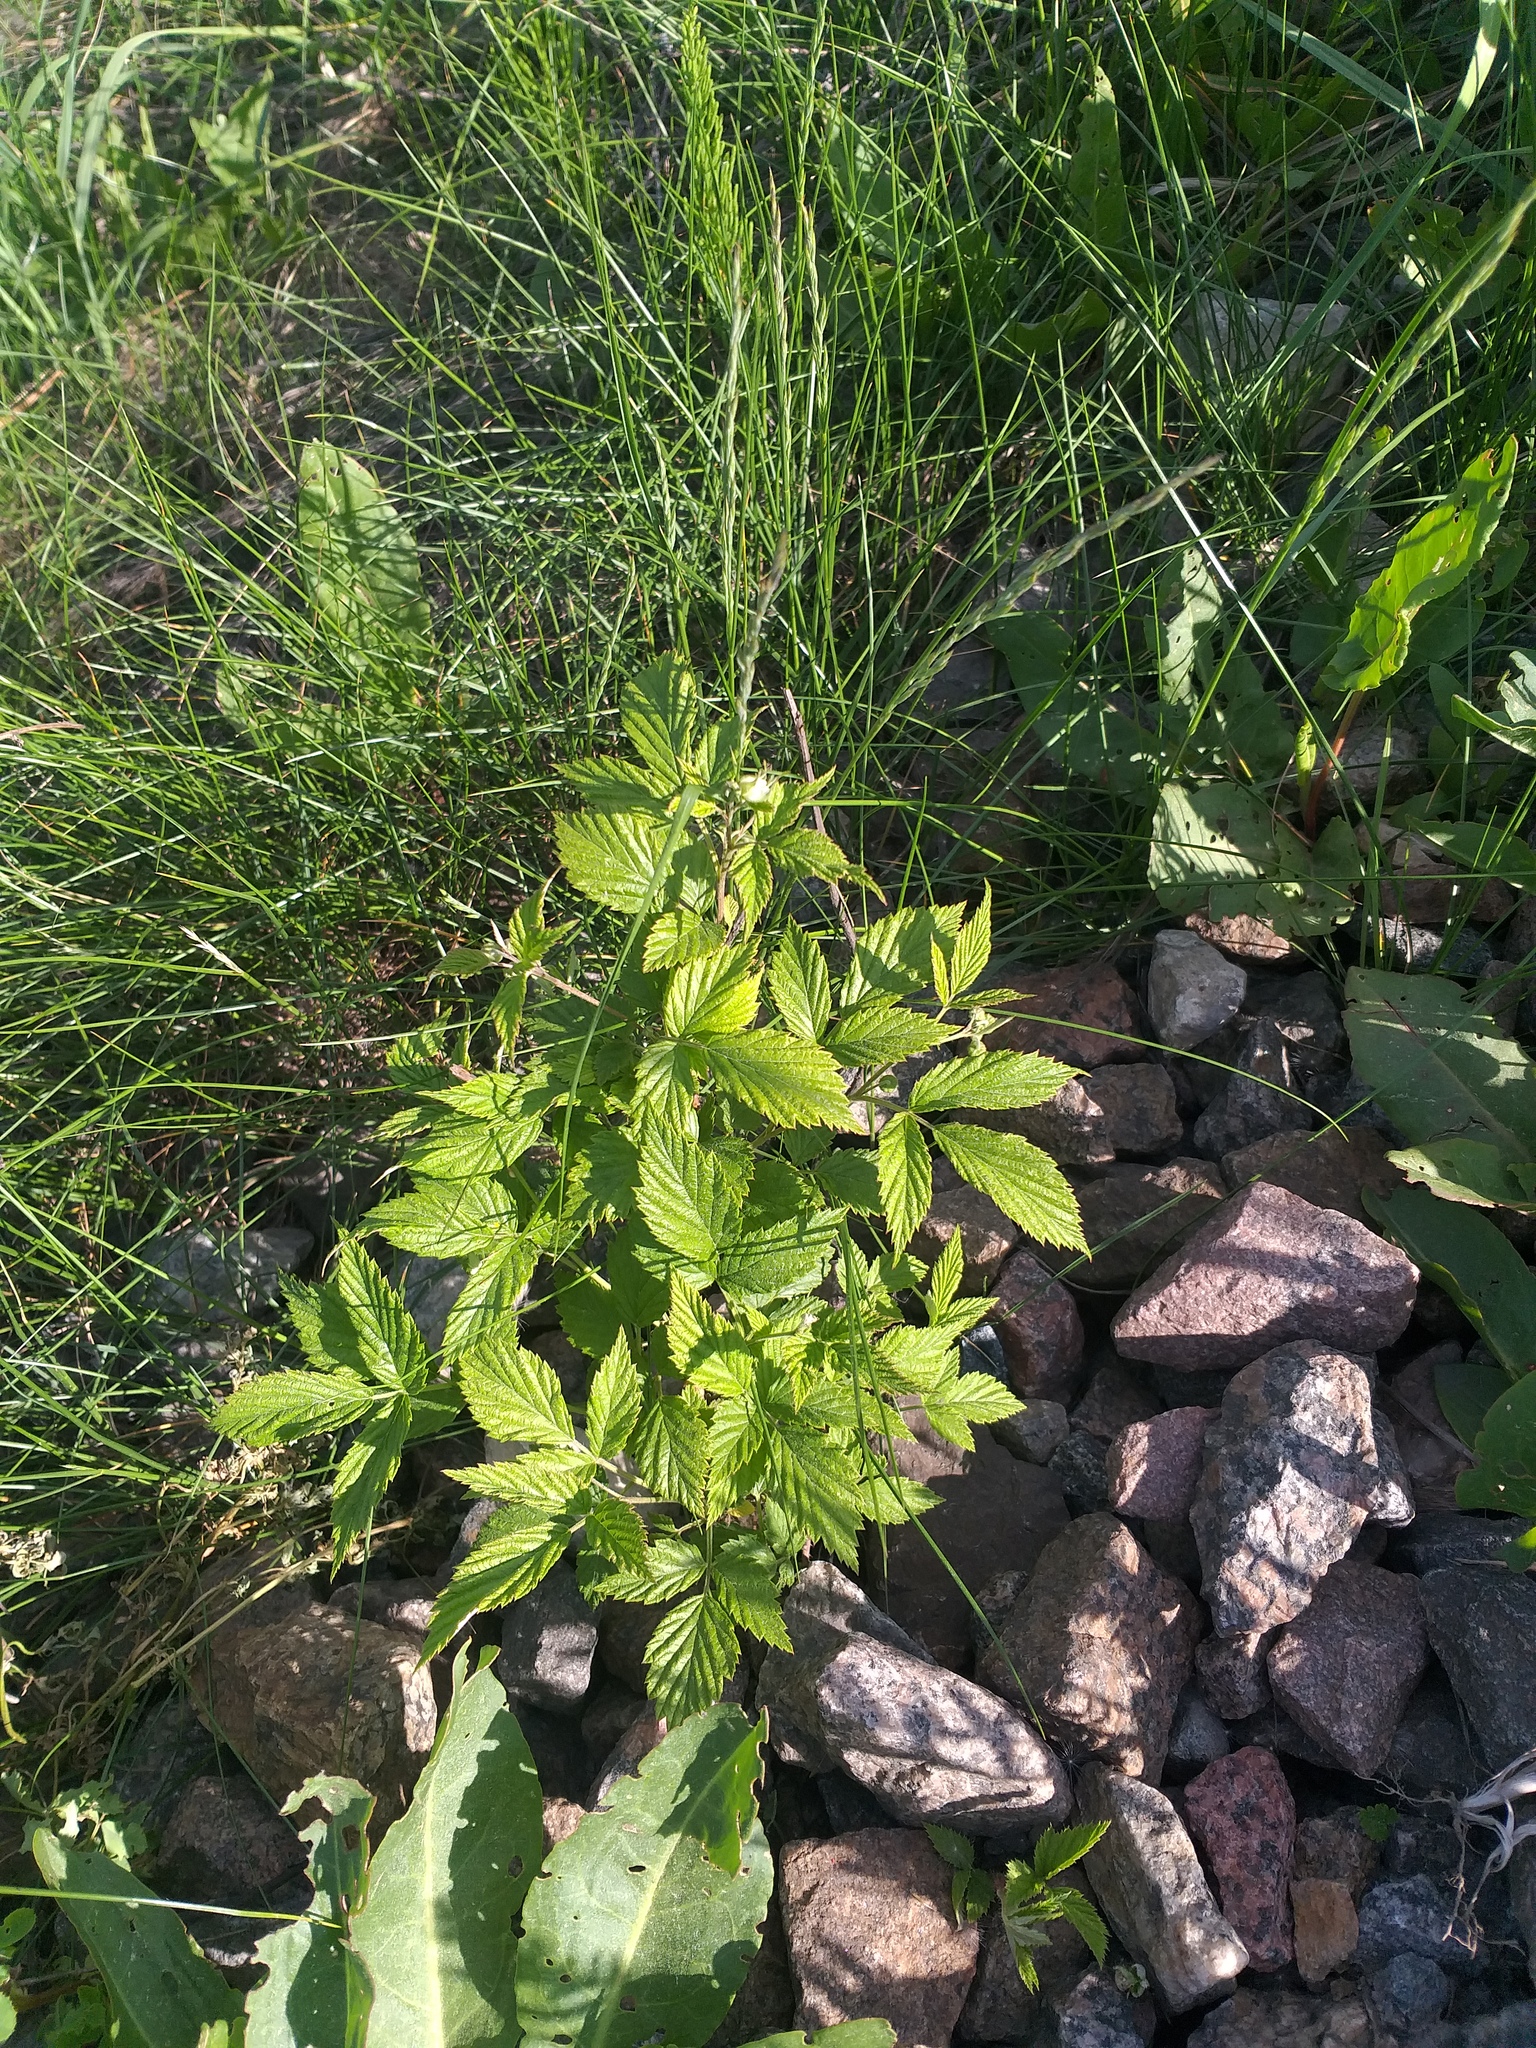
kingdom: Plantae
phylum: Tracheophyta
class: Magnoliopsida
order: Rosales
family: Rosaceae
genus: Rubus
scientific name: Rubus idaeus
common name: Raspberry
